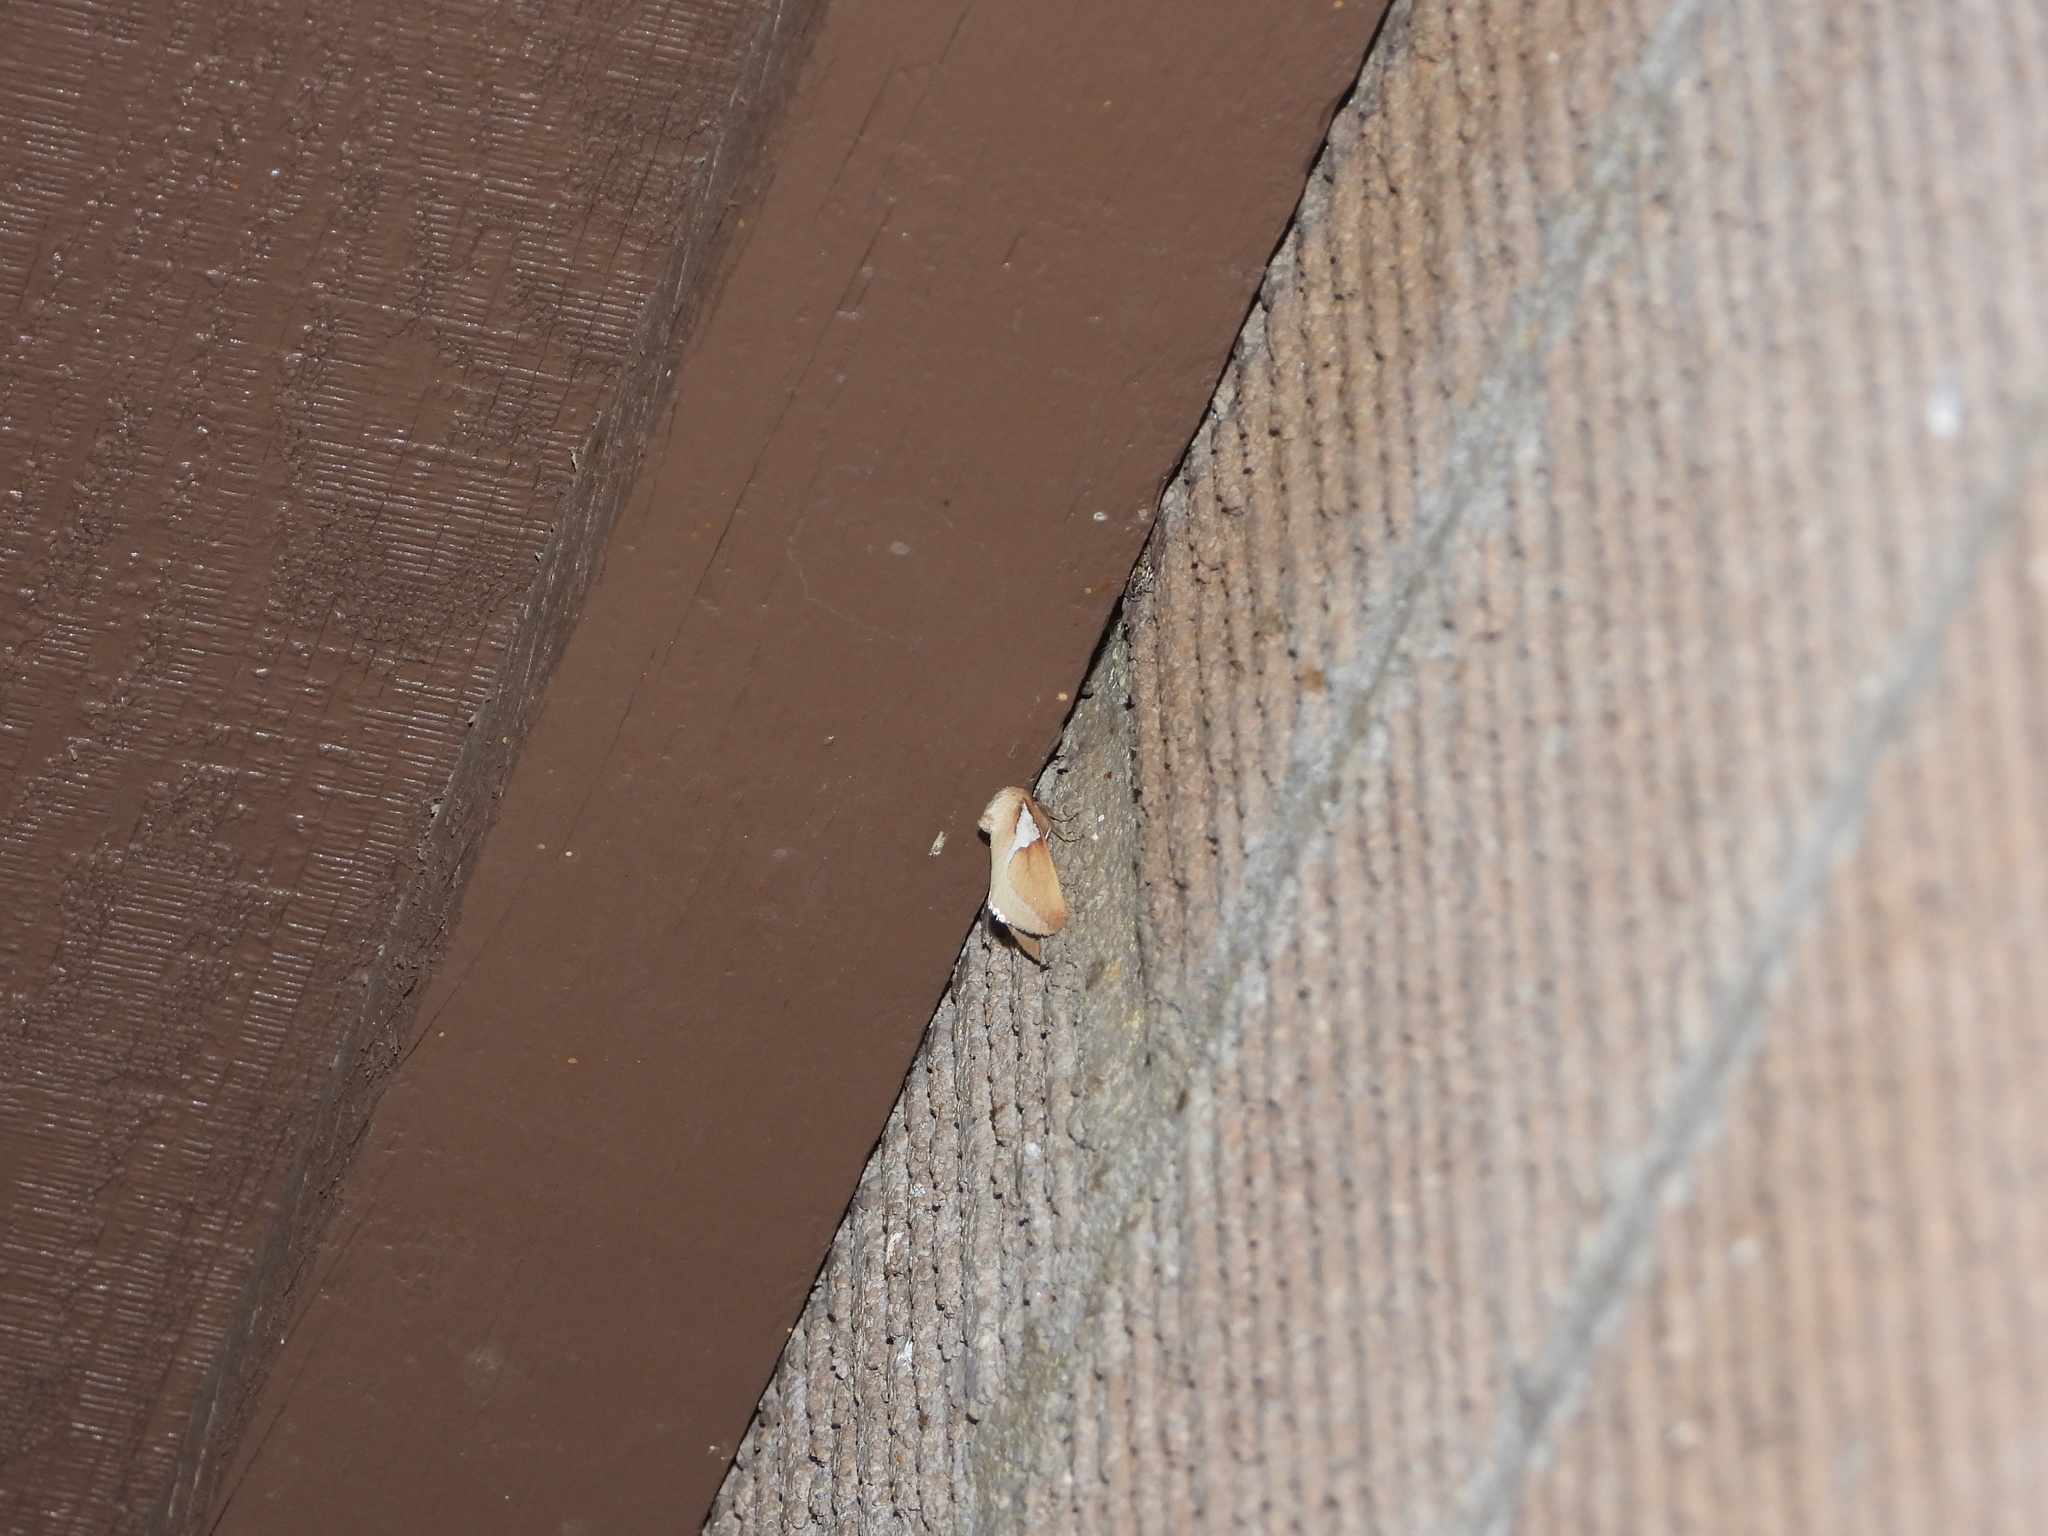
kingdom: Animalia
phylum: Arthropoda
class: Insecta
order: Lepidoptera
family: Limacodidae
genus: Prolimacodes
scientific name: Prolimacodes trigona
